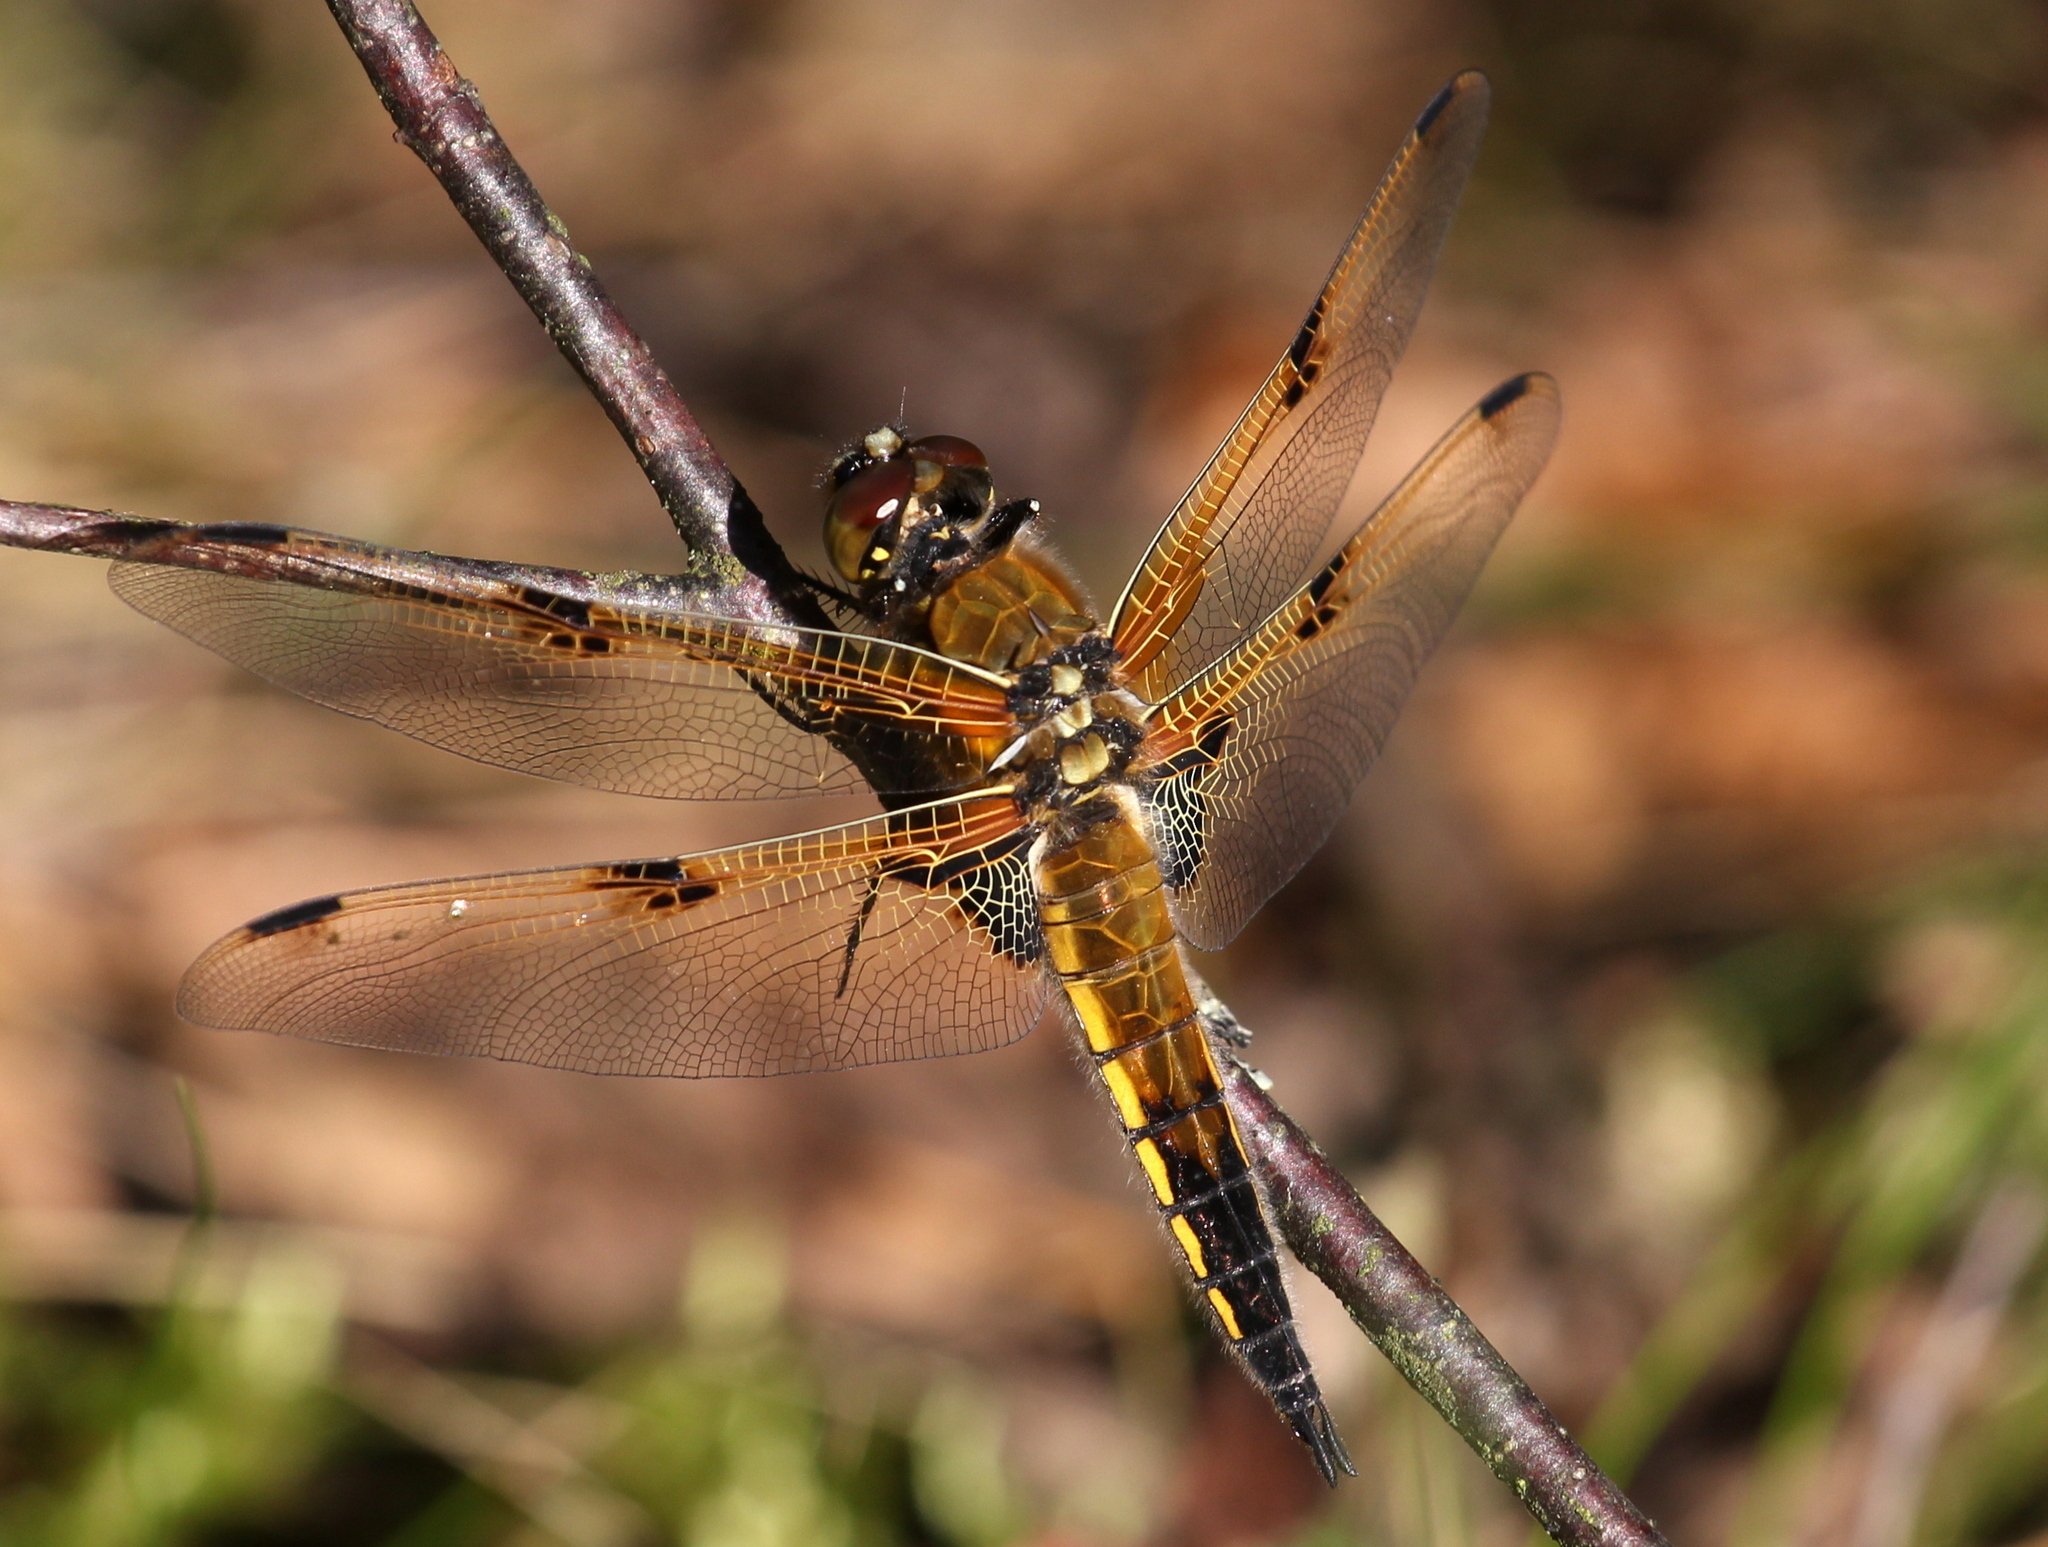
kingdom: Animalia
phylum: Arthropoda
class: Insecta
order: Odonata
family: Libellulidae
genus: Libellula
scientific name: Libellula quadrimaculata
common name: Four-spotted chaser
